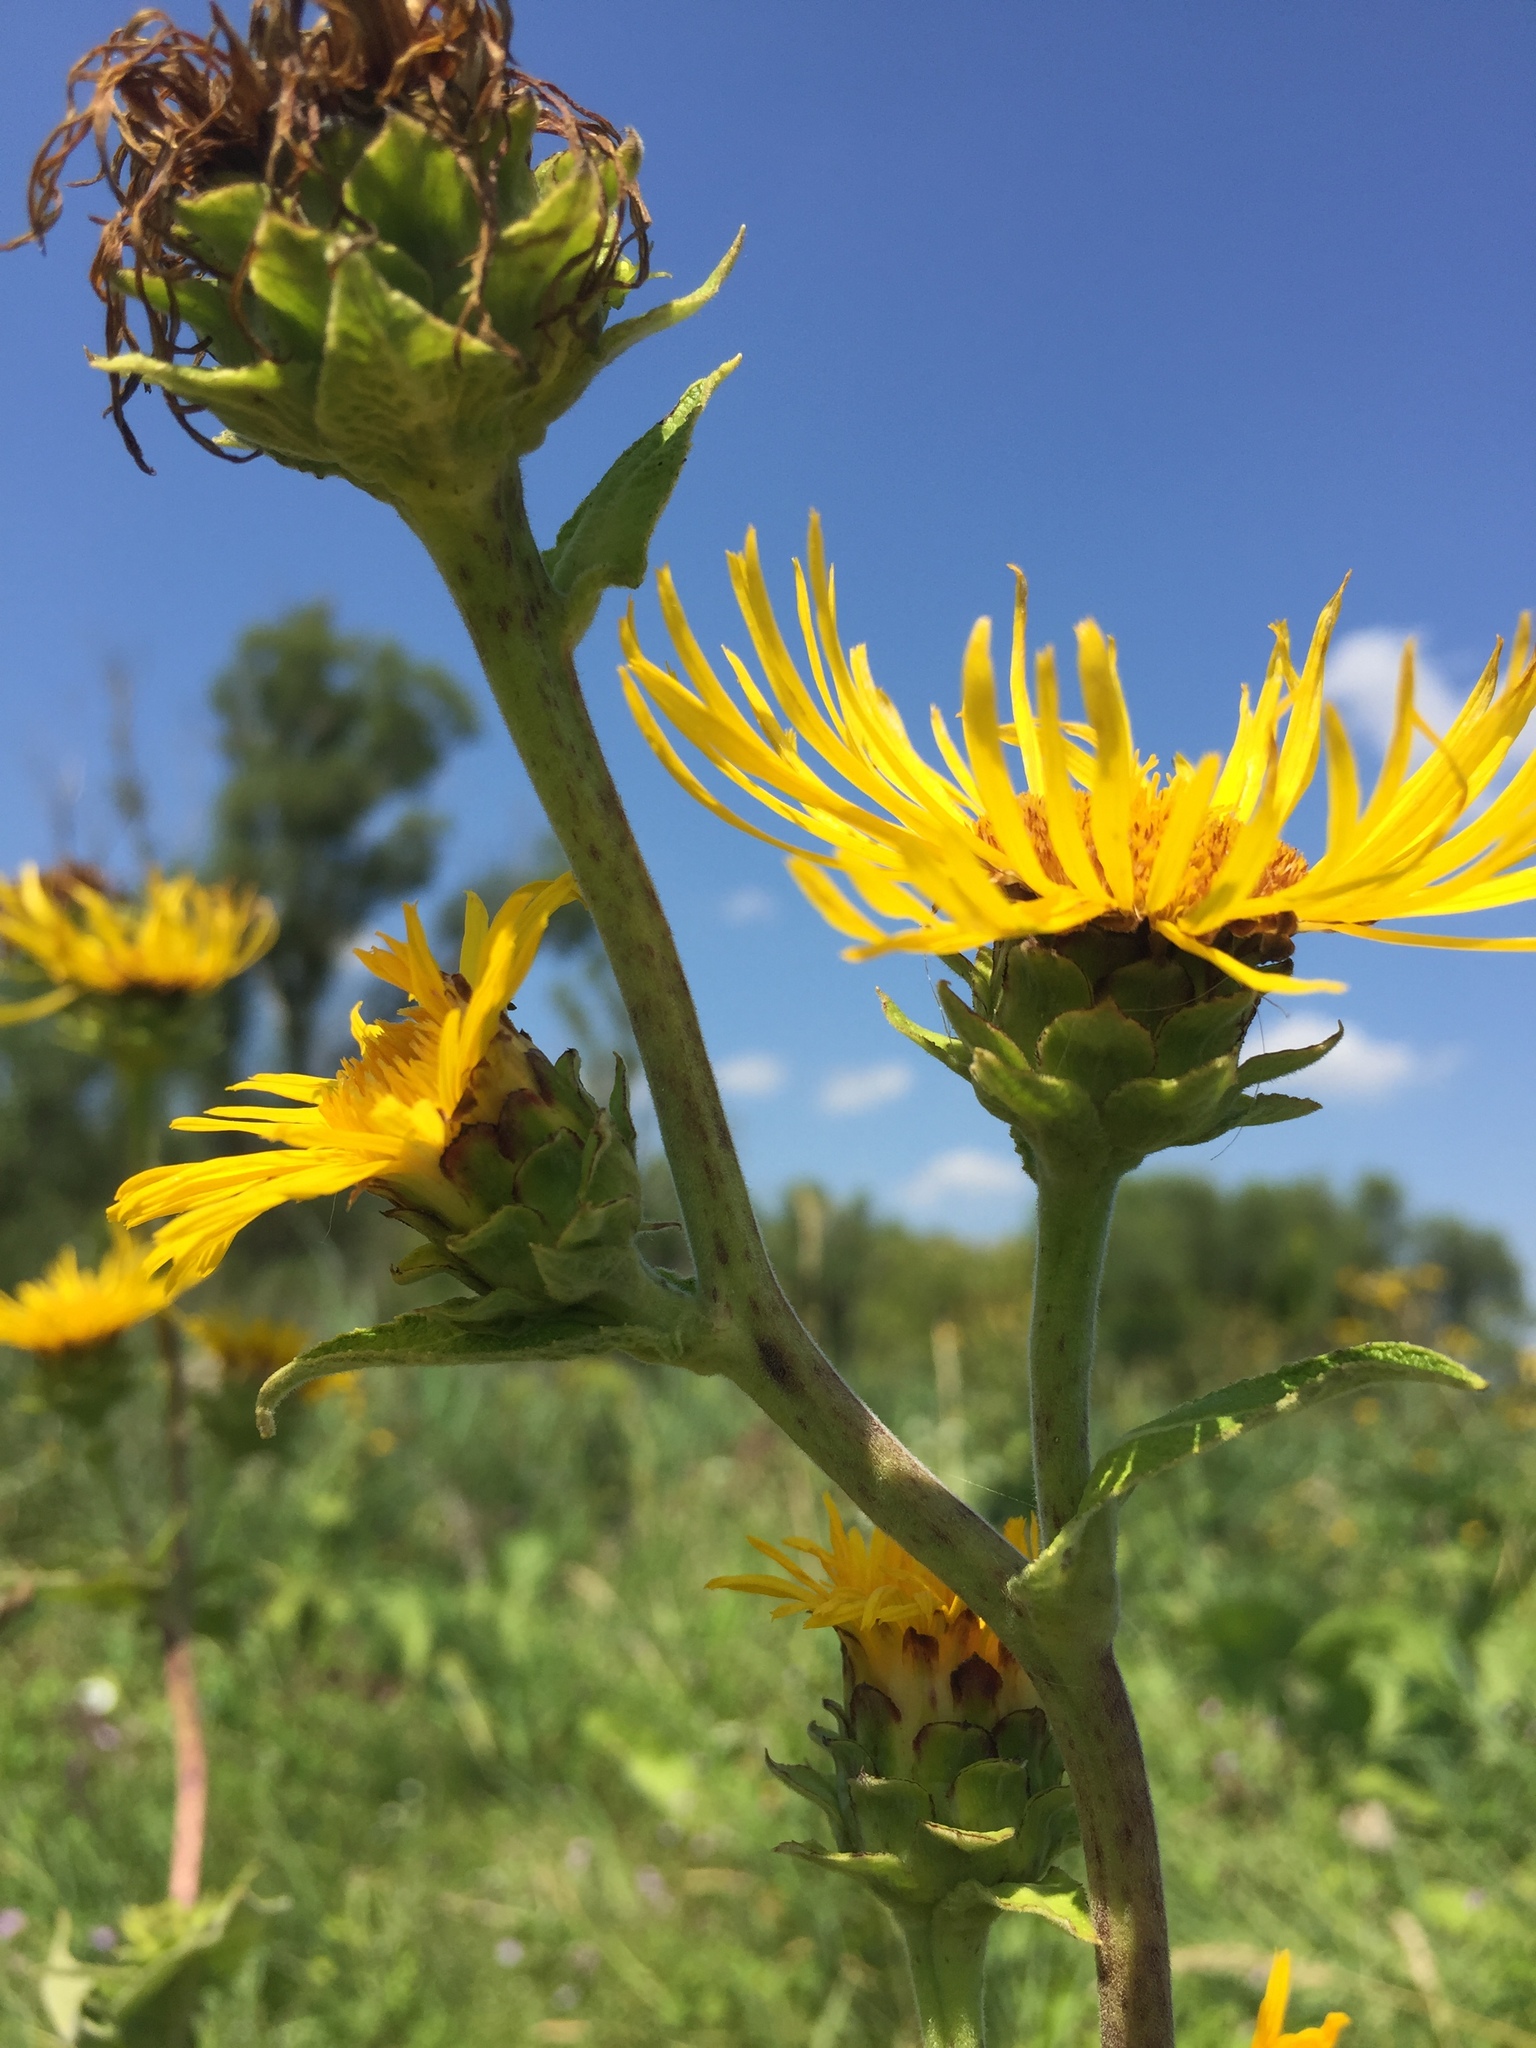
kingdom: Plantae
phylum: Tracheophyta
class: Magnoliopsida
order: Asterales
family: Asteraceae
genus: Inula
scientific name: Inula helenium
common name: Elecampane
